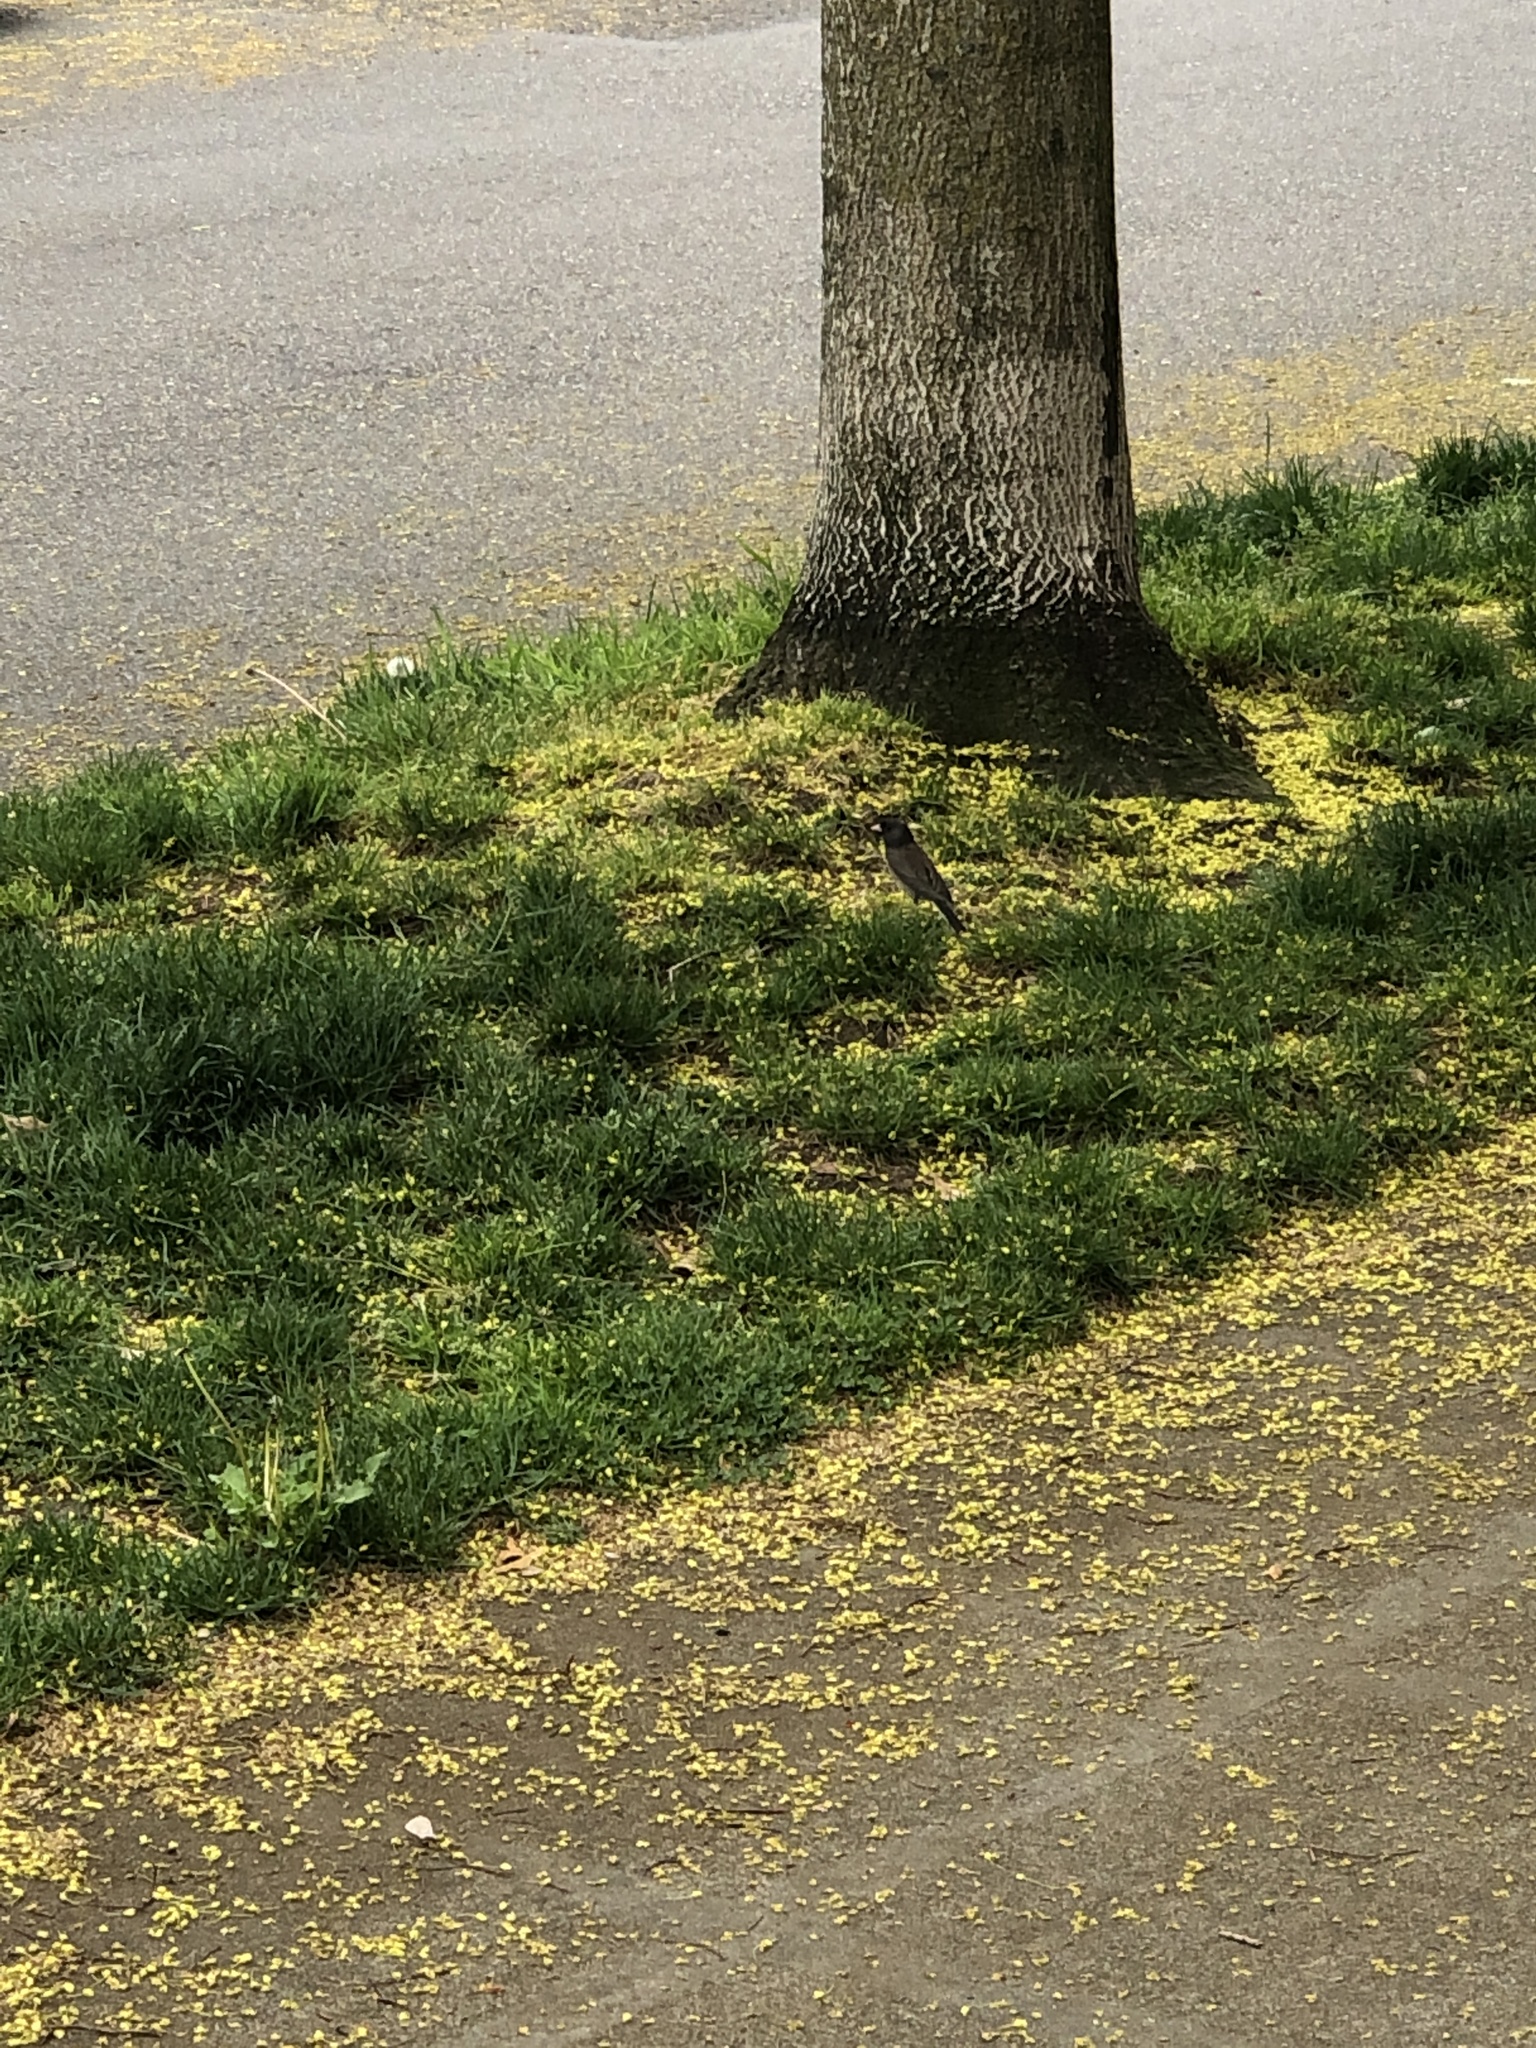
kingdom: Animalia
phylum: Chordata
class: Aves
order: Passeriformes
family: Passerellidae
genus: Junco
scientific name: Junco hyemalis
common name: Dark-eyed junco
